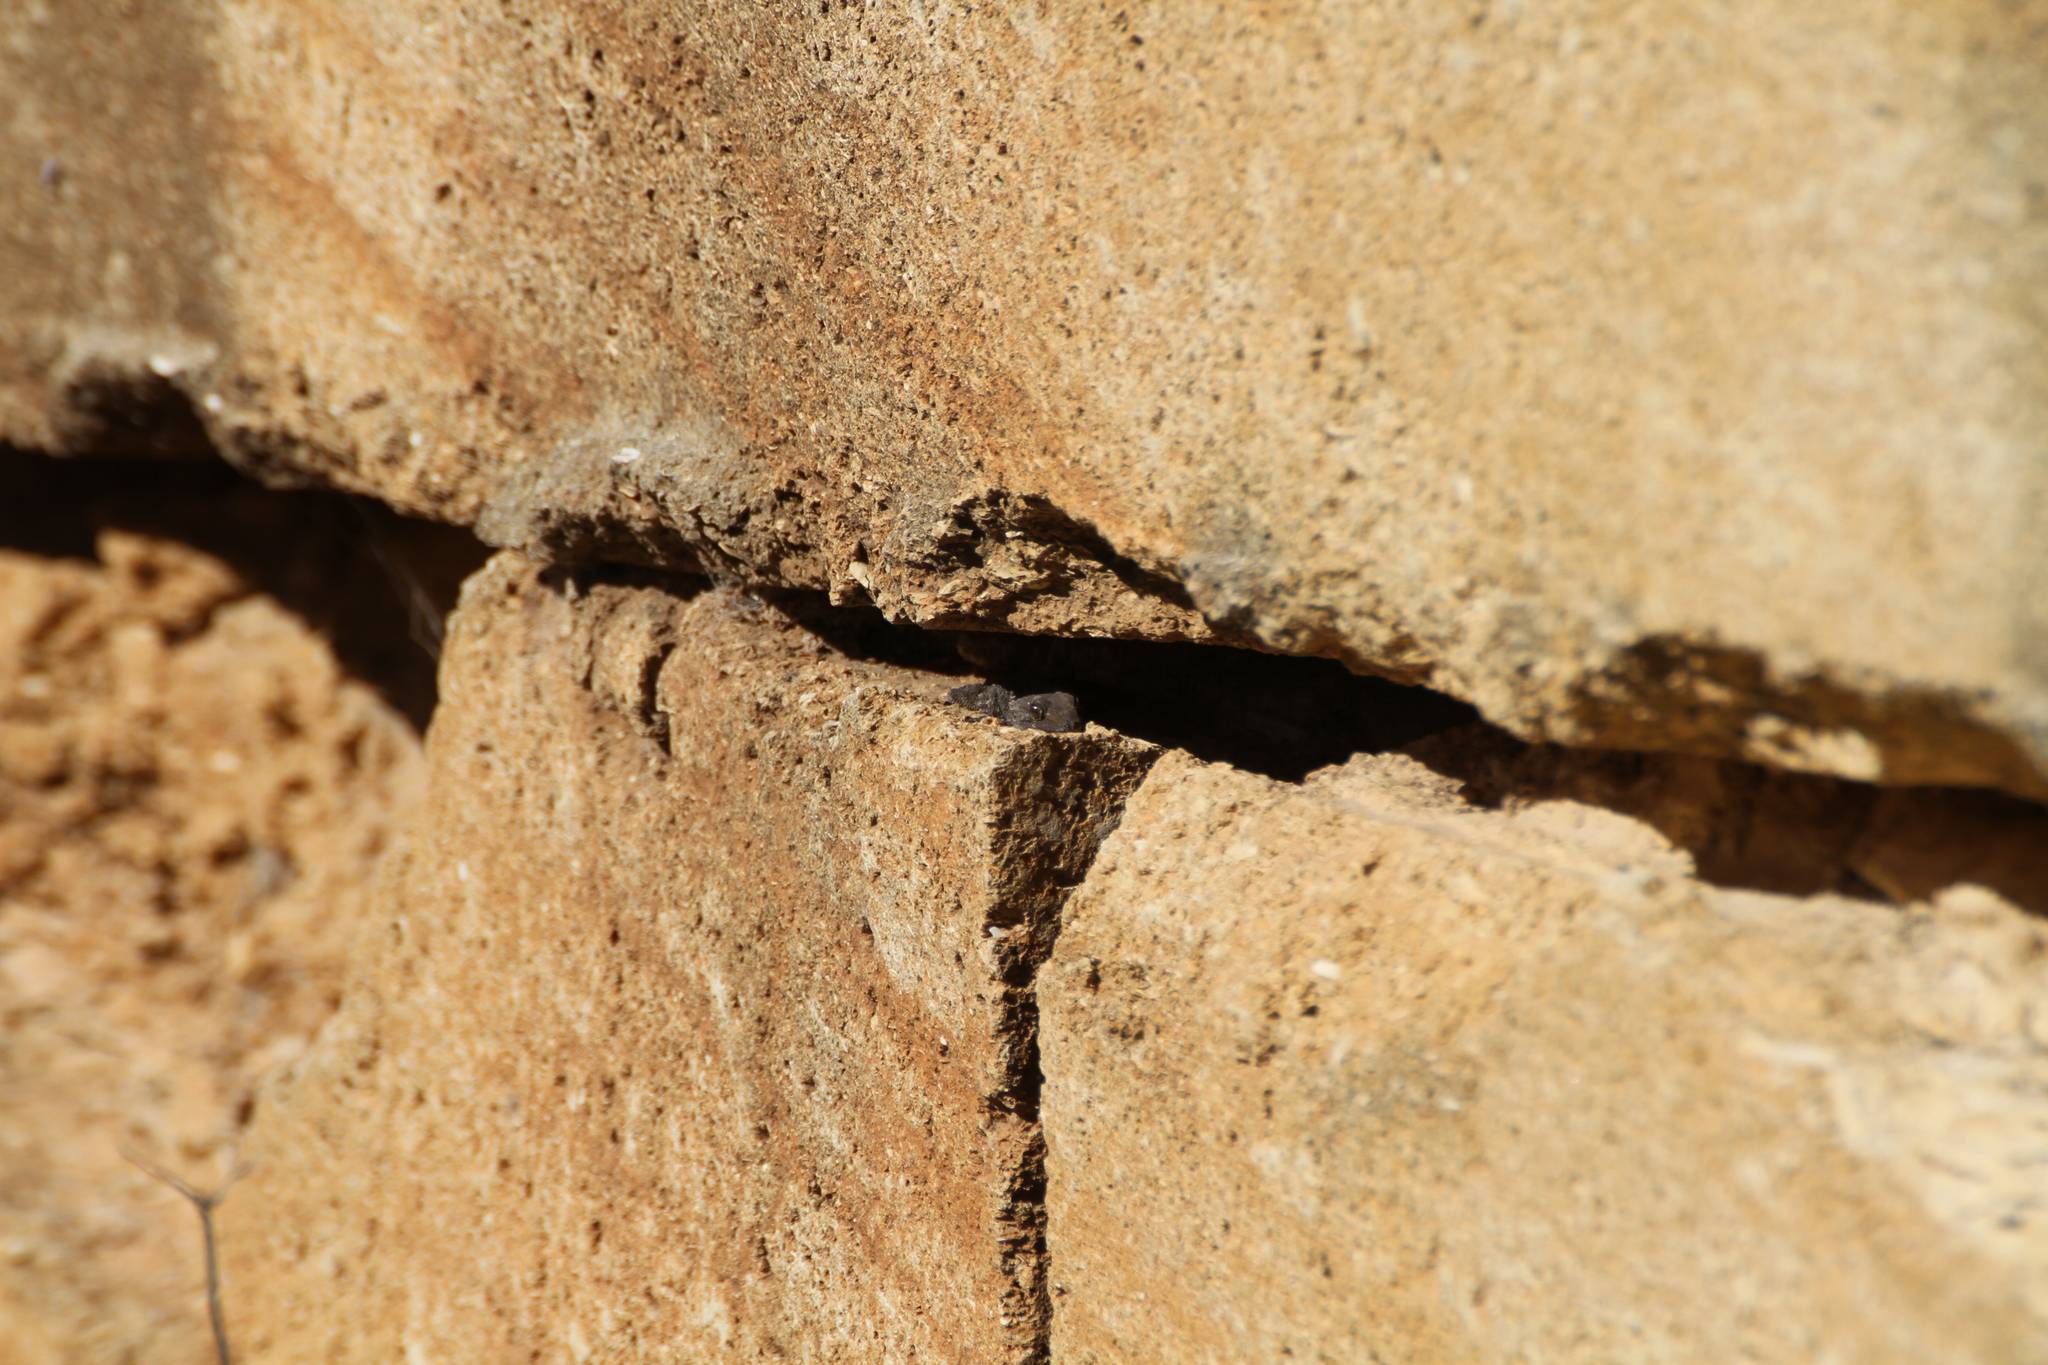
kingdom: Animalia
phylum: Chordata
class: Squamata
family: Phyllodactylidae
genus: Tarentola
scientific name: Tarentola mauritanica
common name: Moorish gecko
